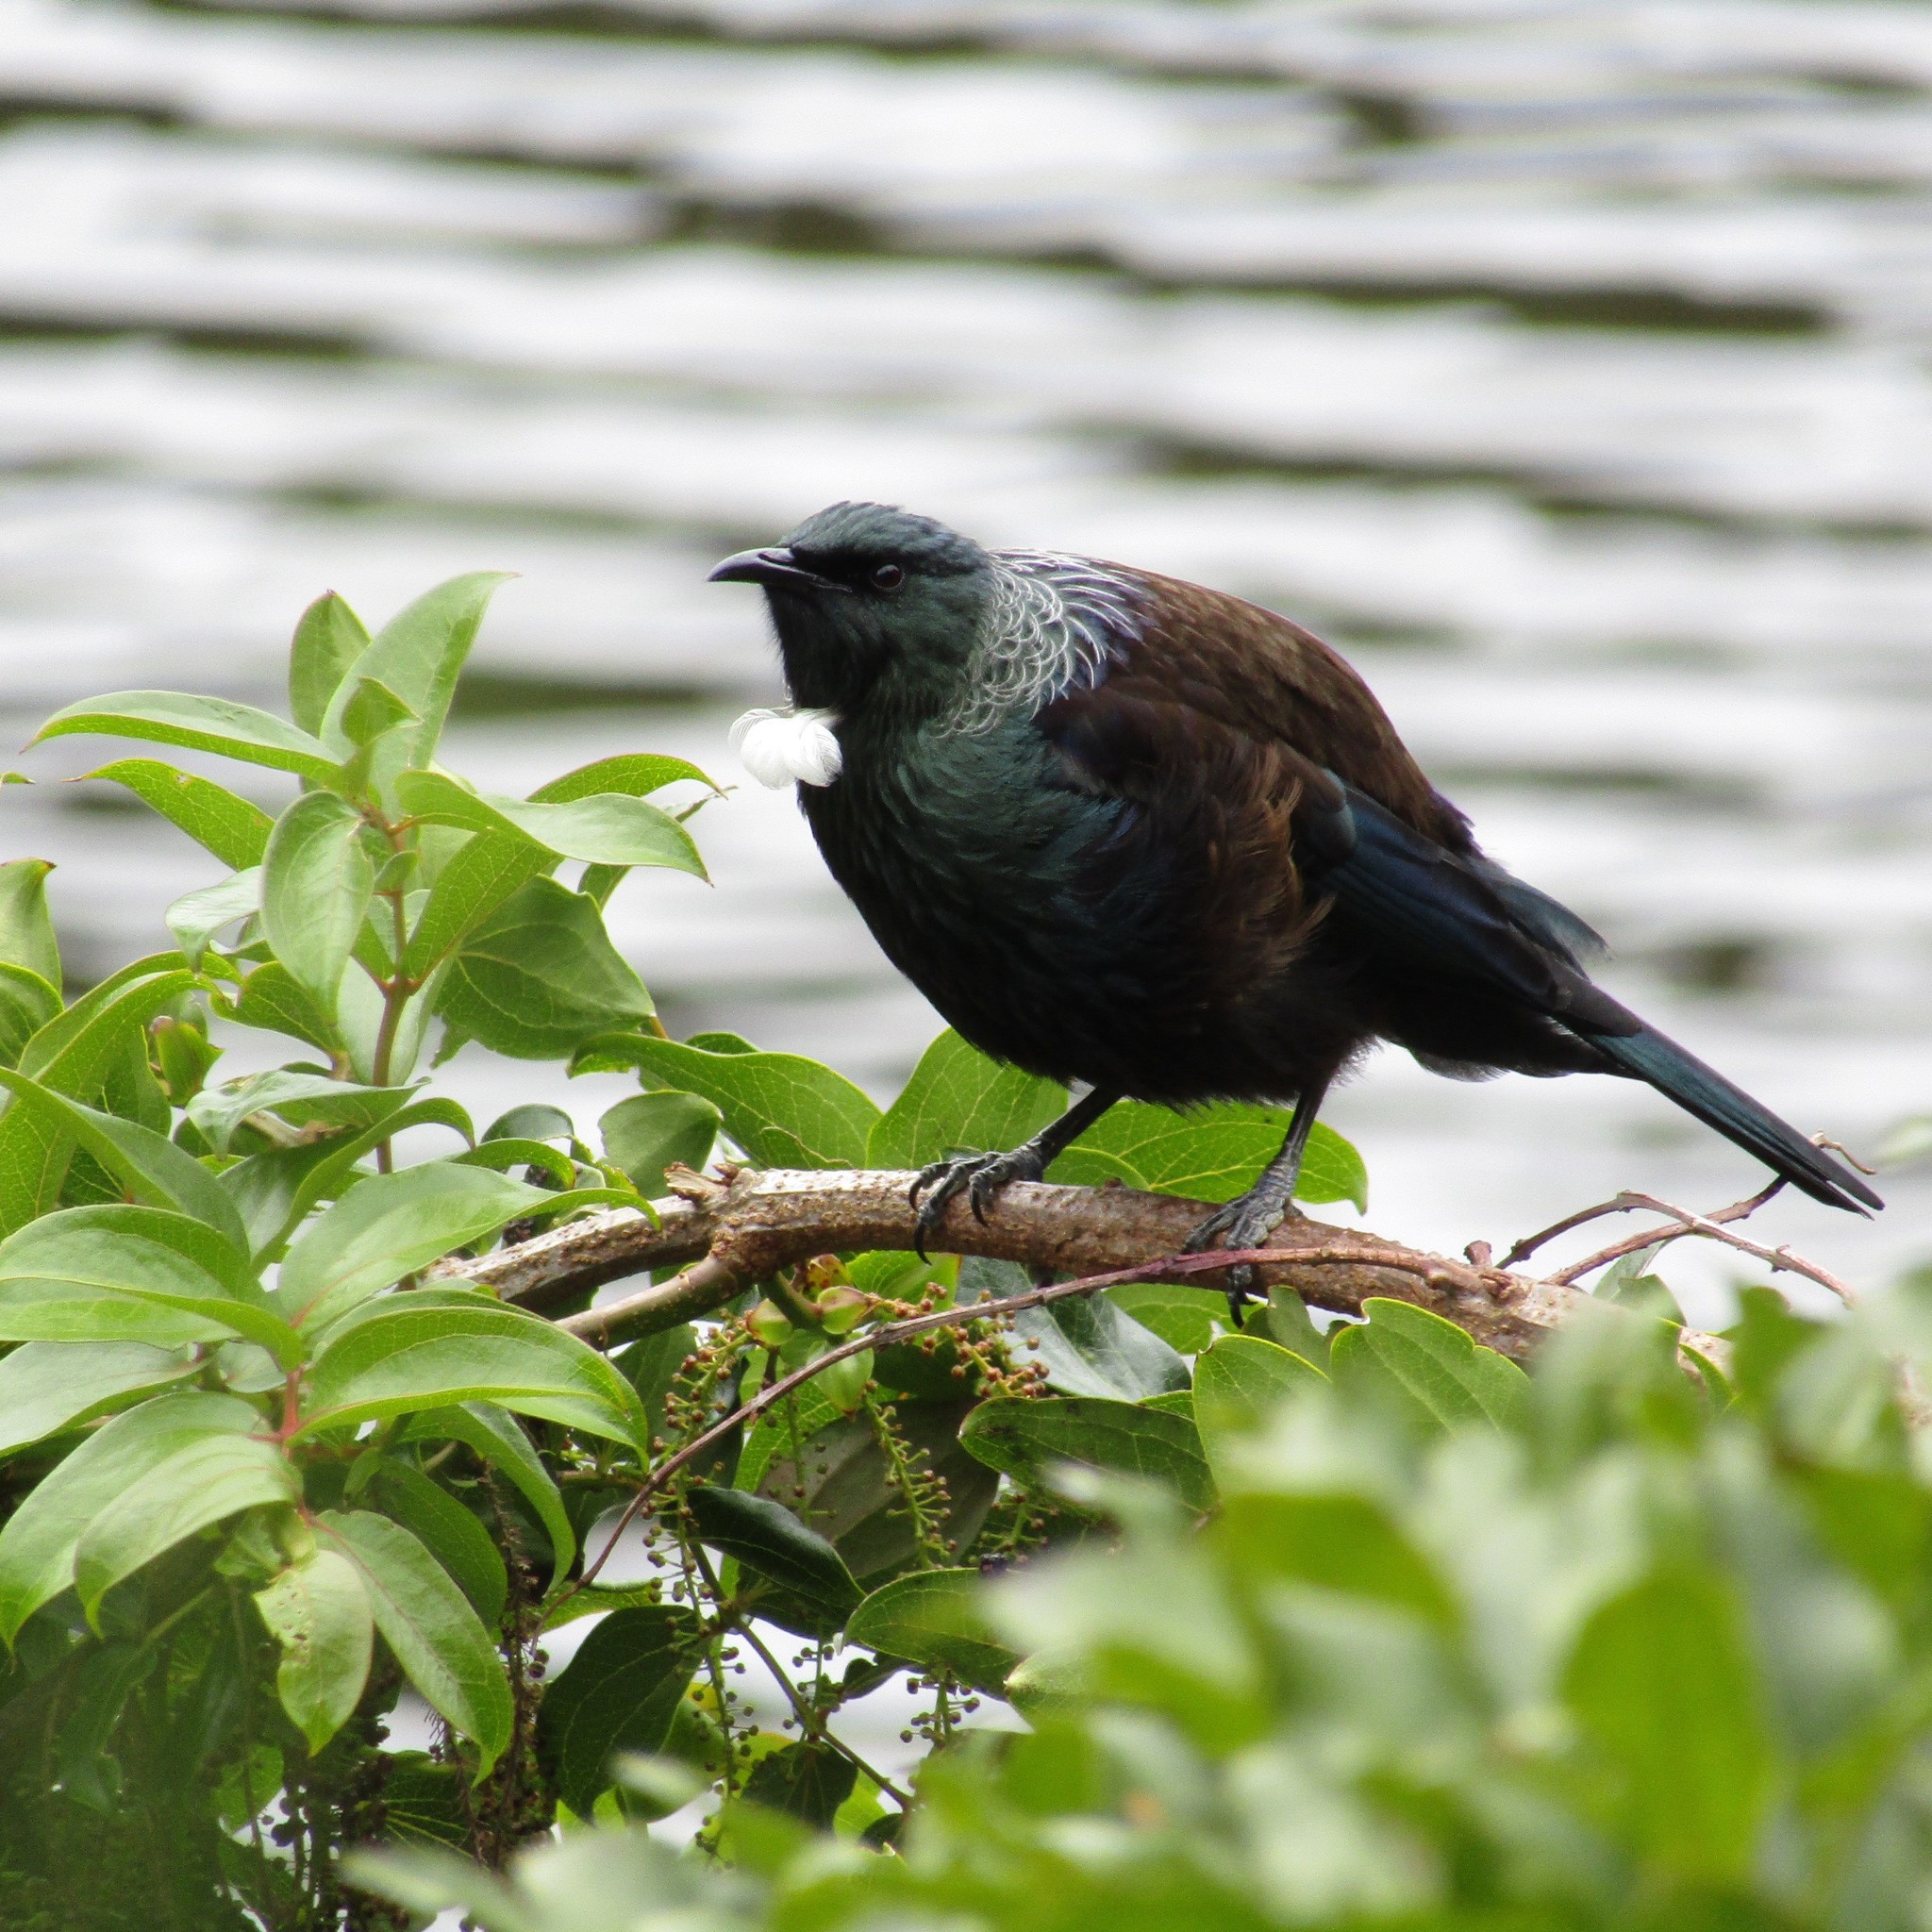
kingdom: Animalia
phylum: Chordata
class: Aves
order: Passeriformes
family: Meliphagidae
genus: Prosthemadera
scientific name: Prosthemadera novaeseelandiae
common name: Tui
